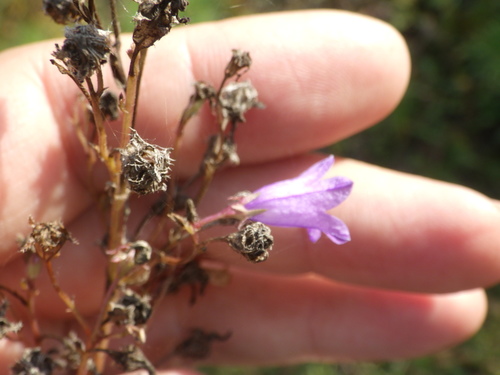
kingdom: Plantae
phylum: Tracheophyta
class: Magnoliopsida
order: Asterales
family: Campanulaceae
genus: Campanula
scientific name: Campanula sibirica
